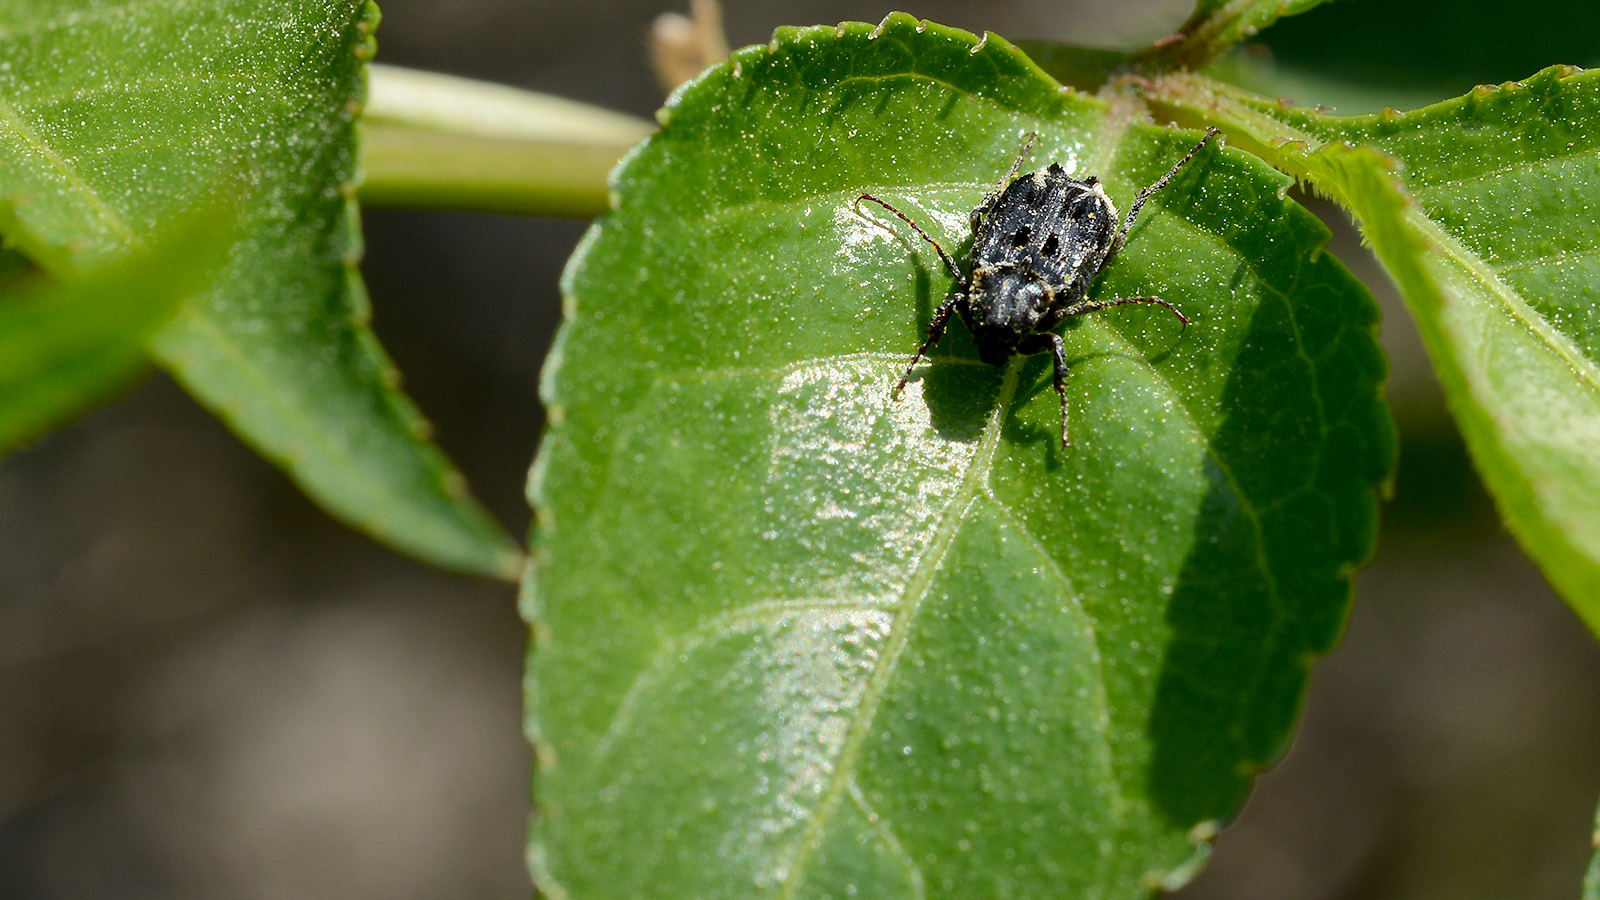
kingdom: Animalia
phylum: Arthropoda
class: Insecta
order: Coleoptera
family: Scarabaeidae
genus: Nipponovalgus
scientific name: Nipponovalgus angusticollis
